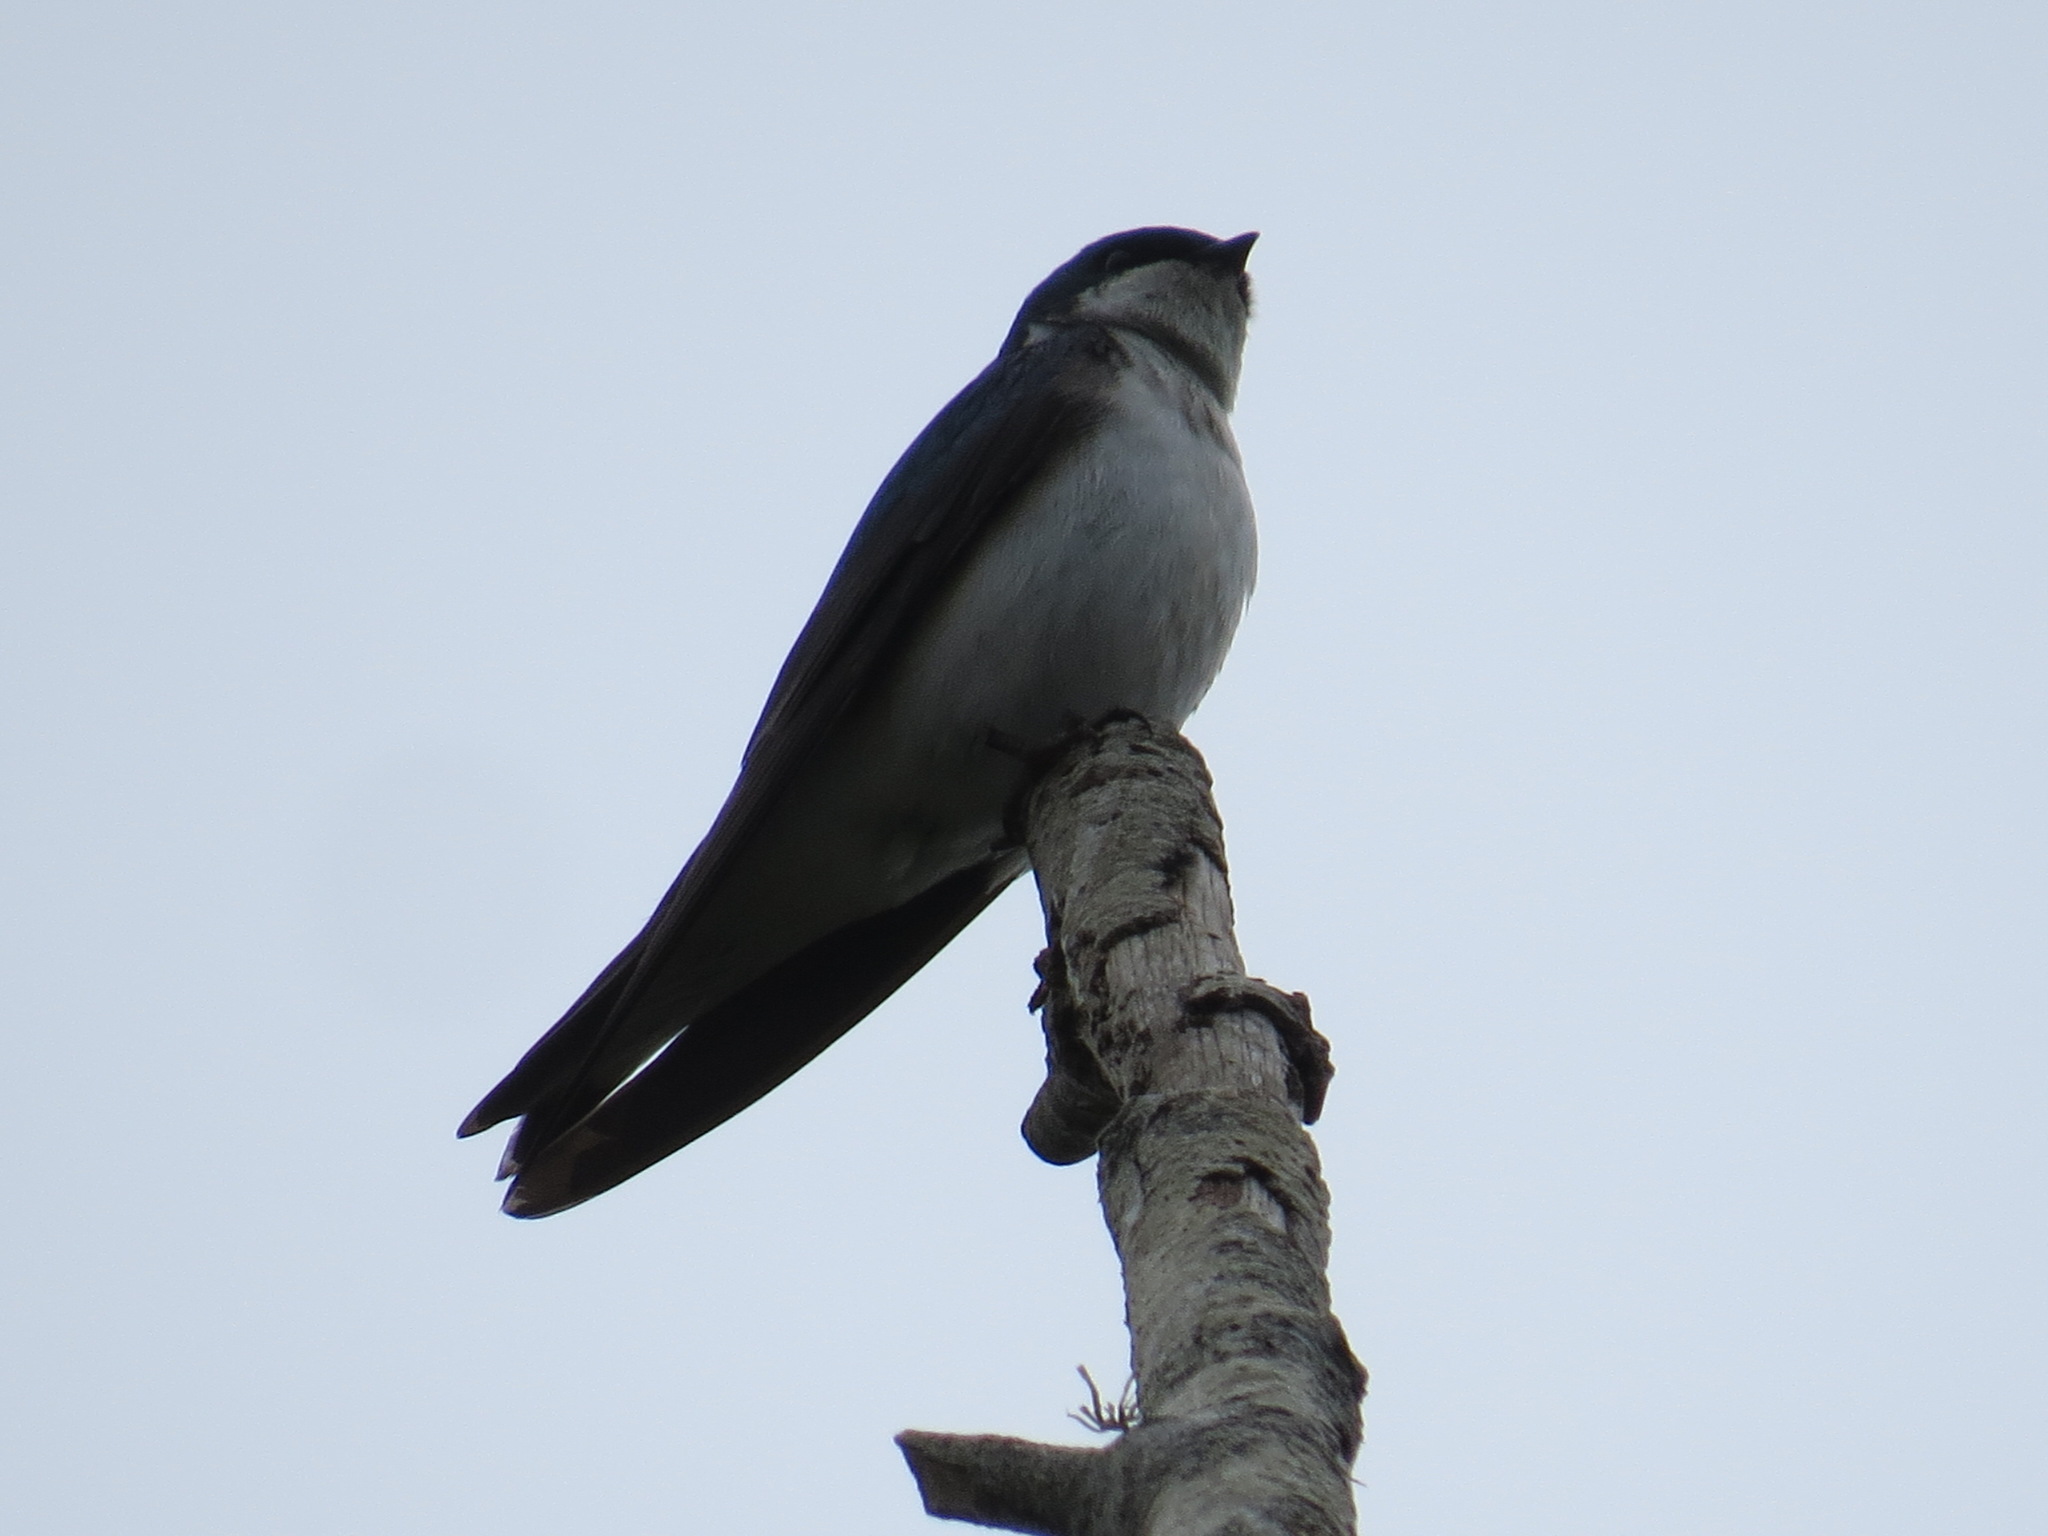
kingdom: Animalia
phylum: Chordata
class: Aves
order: Passeriformes
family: Hirundinidae
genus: Tachycineta
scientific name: Tachycineta bicolor
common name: Tree swallow
